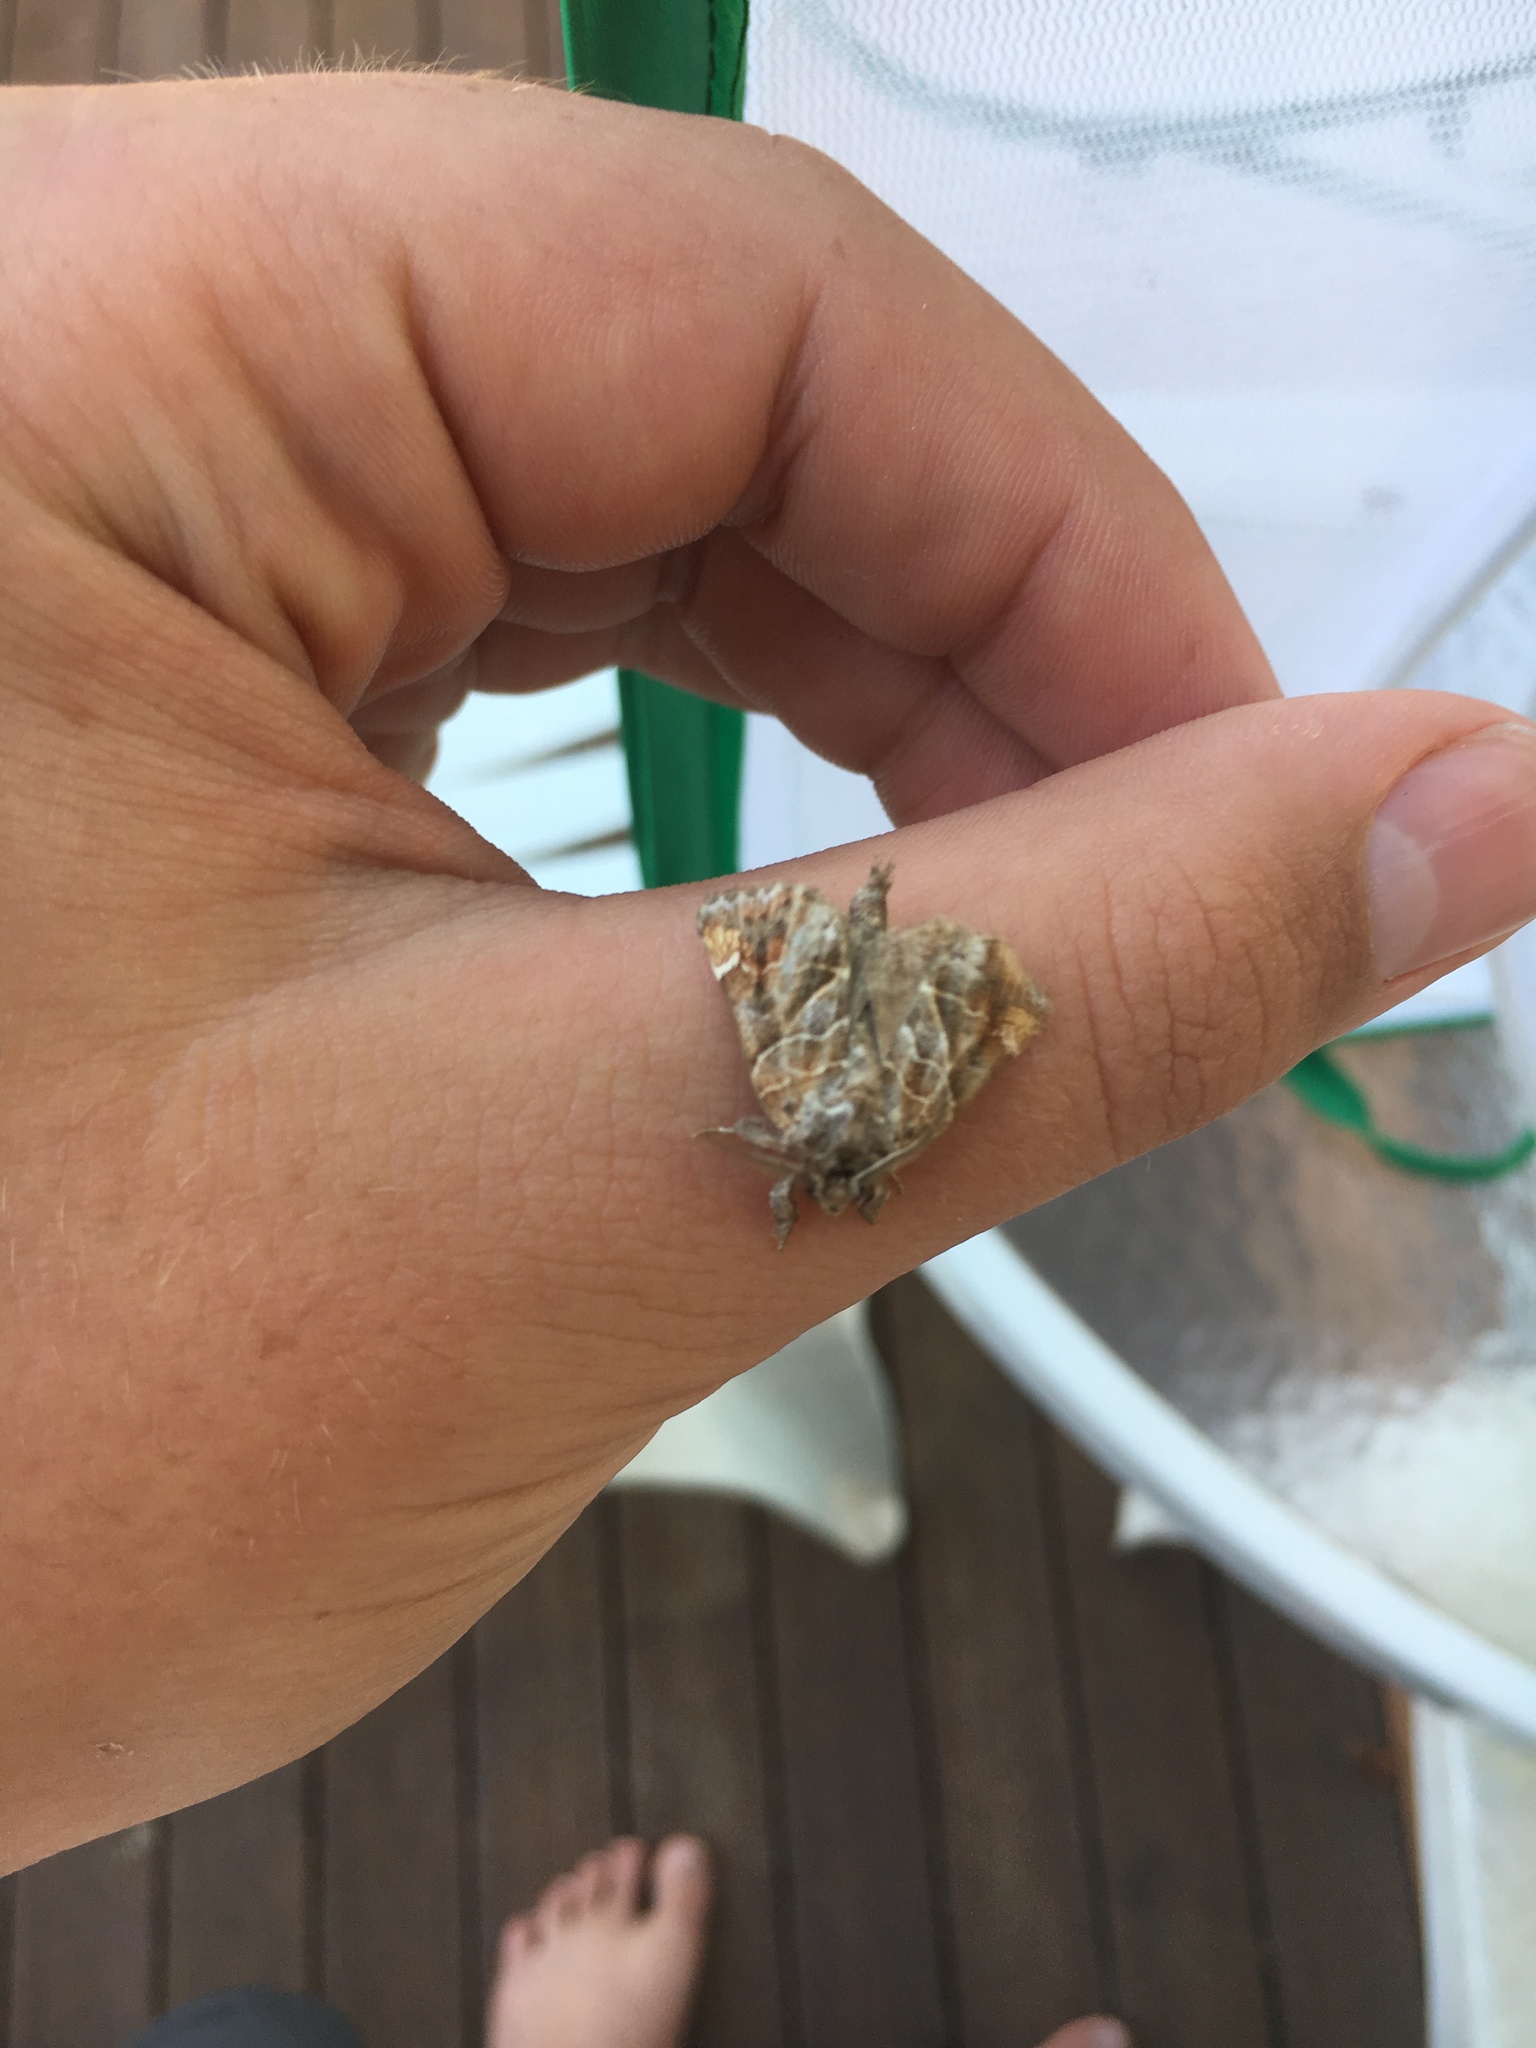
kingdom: Animalia
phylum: Arthropoda
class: Insecta
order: Lepidoptera
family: Notodontidae
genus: Clostera
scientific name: Clostera strigosa
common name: Striped chocolate-tip moth
